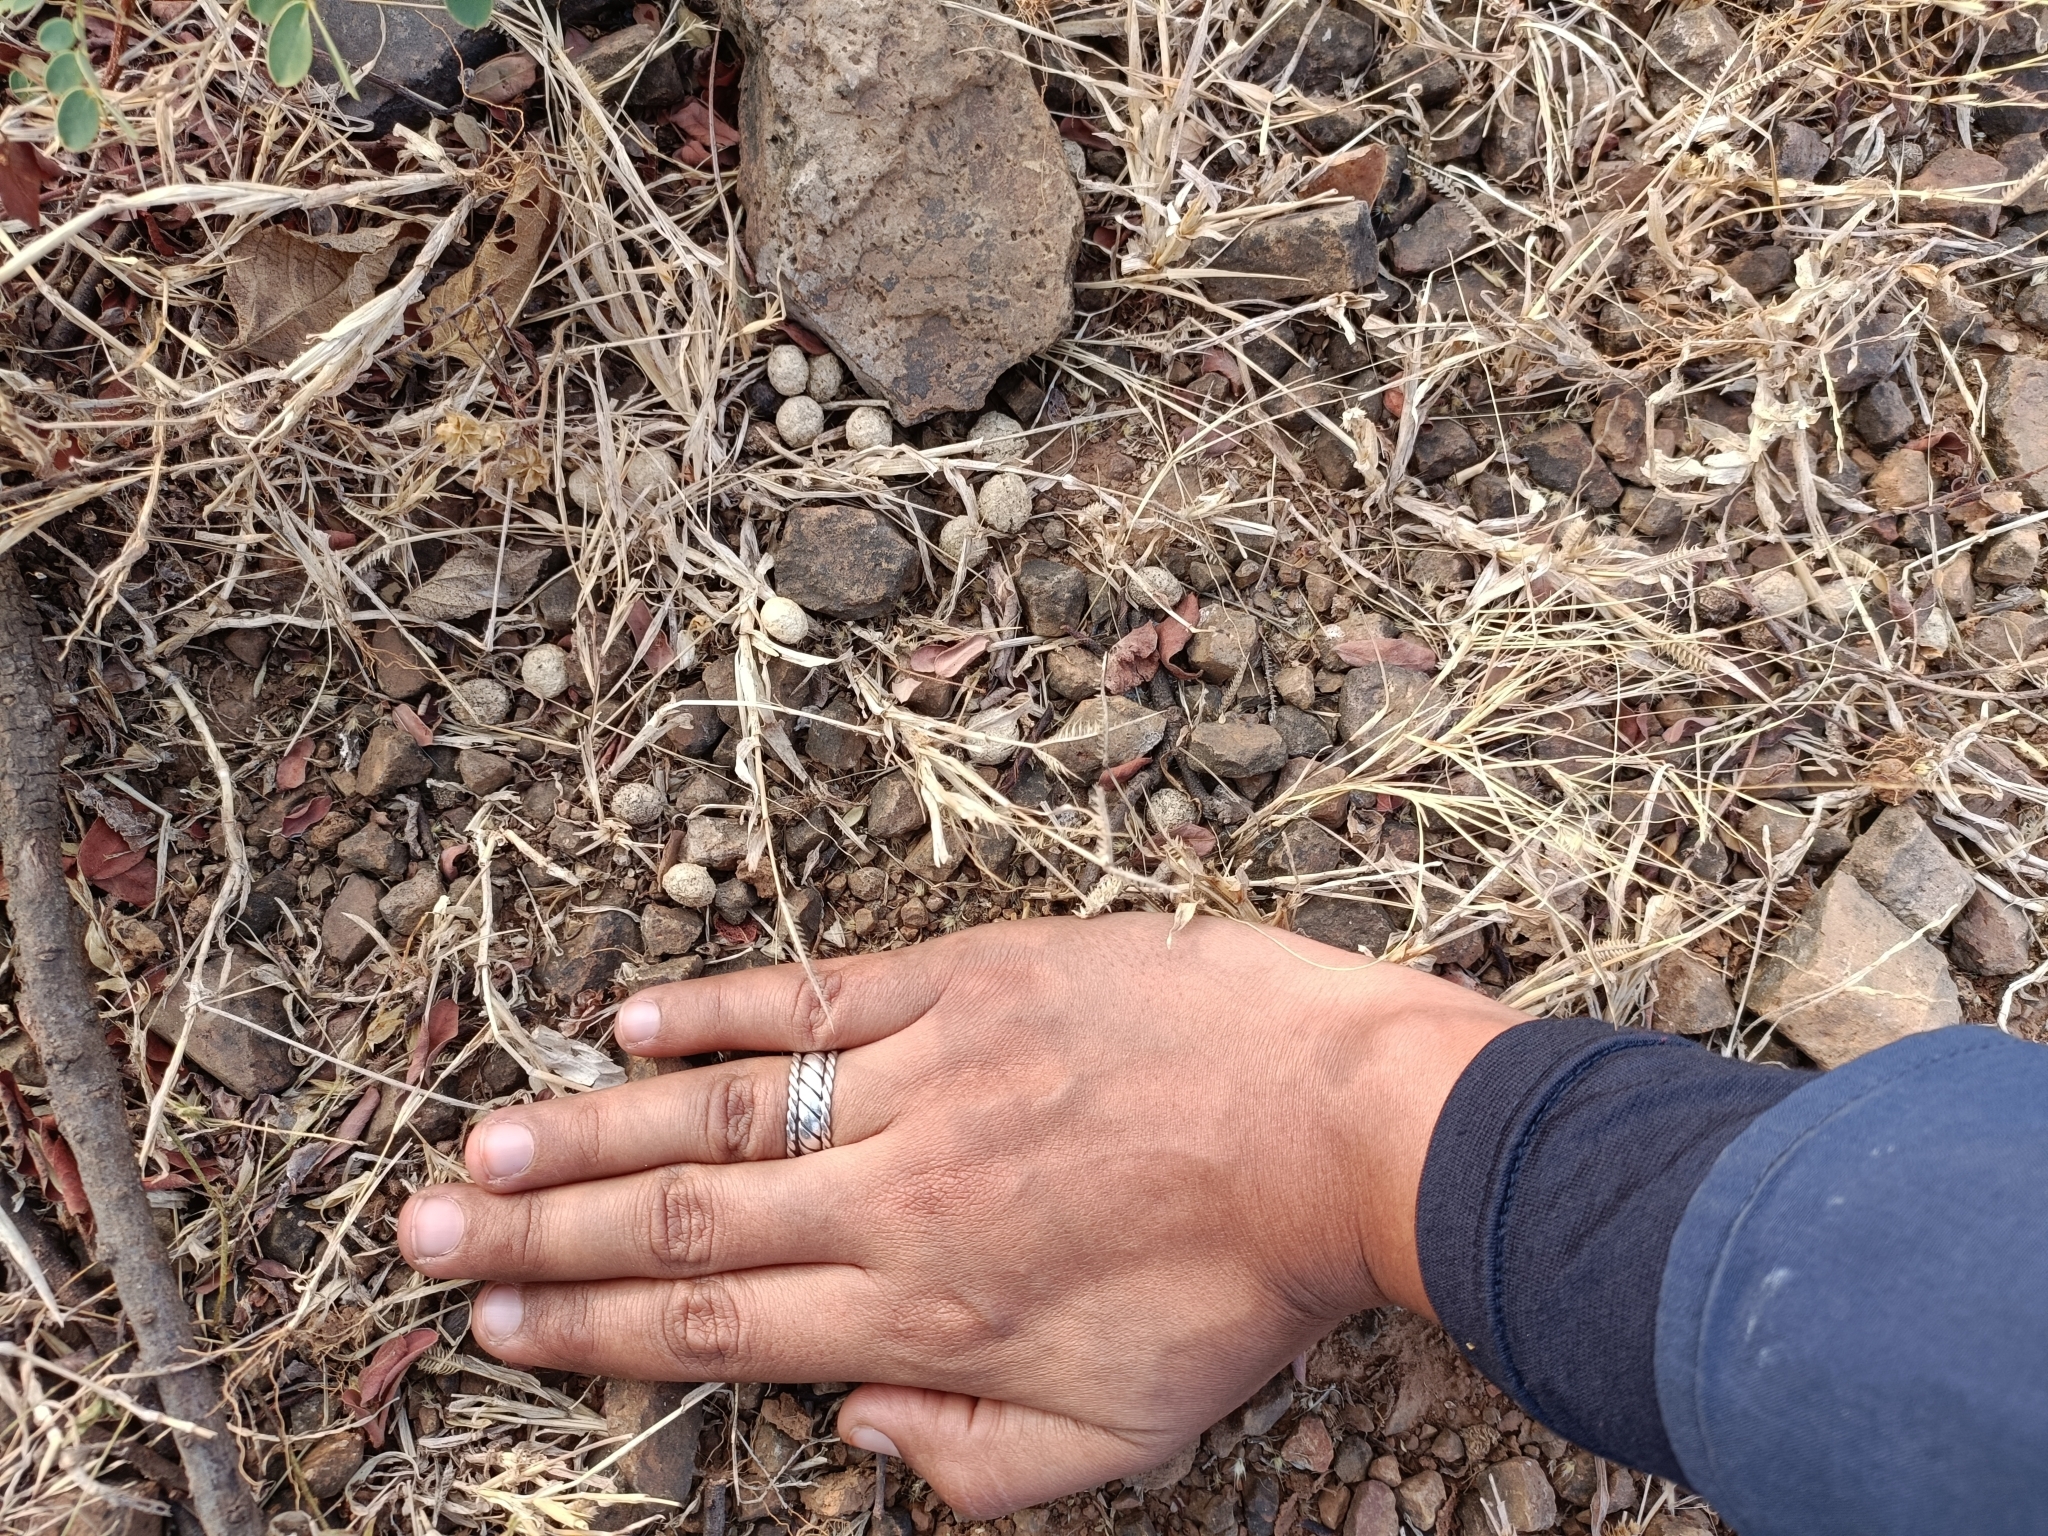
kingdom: Animalia
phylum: Chordata
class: Mammalia
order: Lagomorpha
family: Leporidae
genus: Lepus
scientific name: Lepus nigricollis
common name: Indian hare
